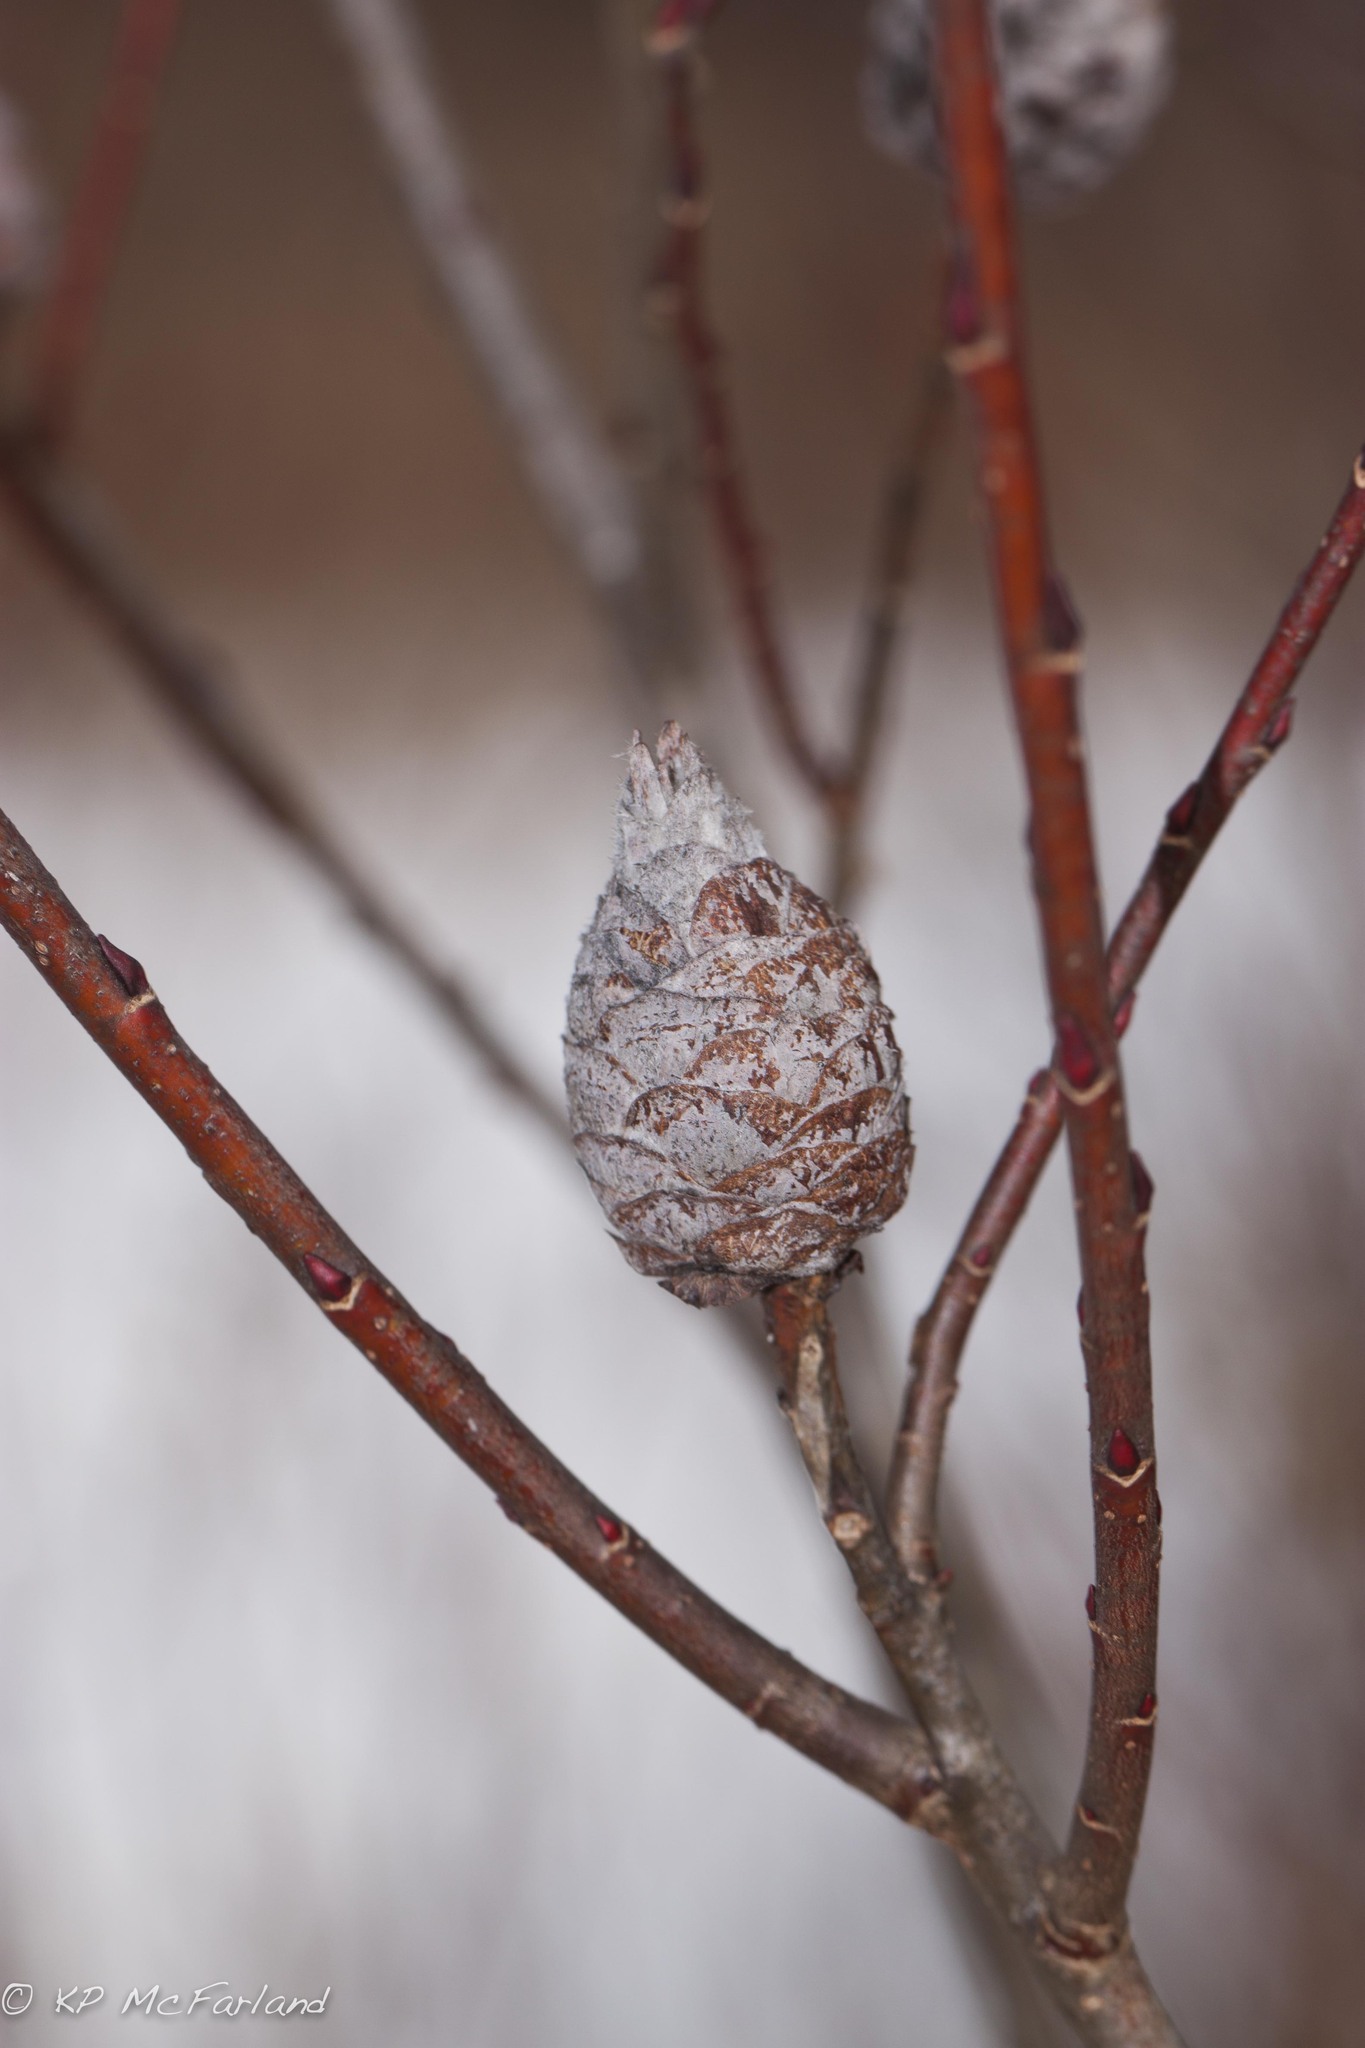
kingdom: Animalia
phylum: Arthropoda
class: Insecta
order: Diptera
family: Cecidomyiidae
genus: Rabdophaga
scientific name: Rabdophaga strobiloides
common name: Willow pinecone gall midge
